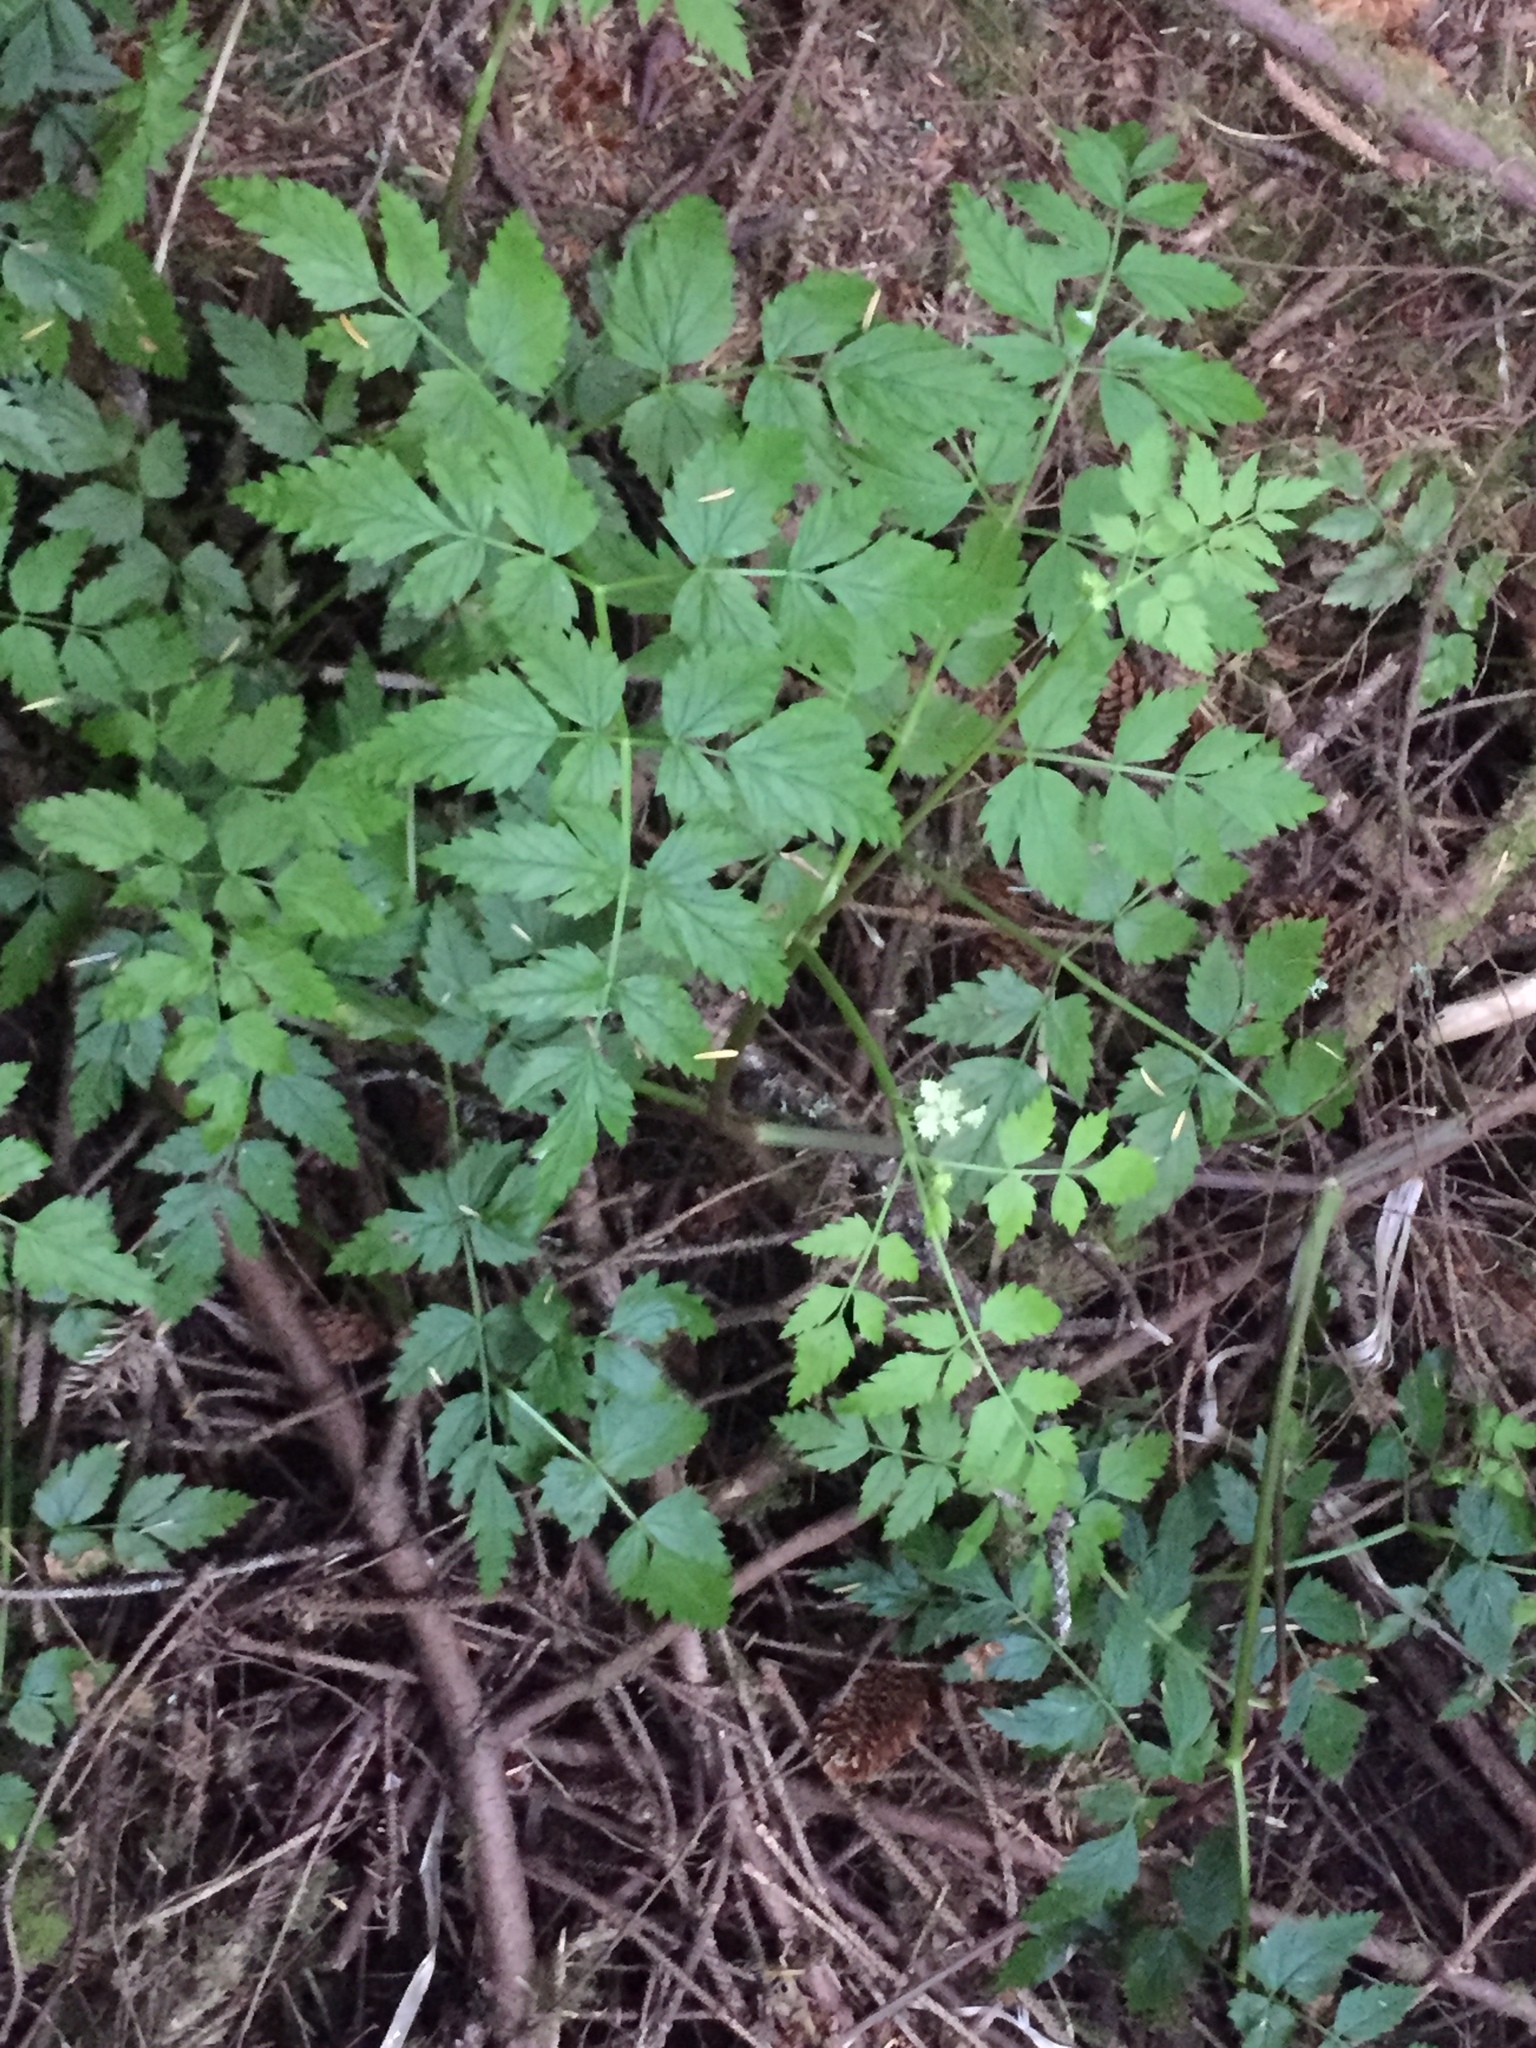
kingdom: Plantae
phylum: Tracheophyta
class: Magnoliopsida
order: Apiales
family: Apiaceae
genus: Oenanthe
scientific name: Oenanthe sarmentosa
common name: American water-parsley
